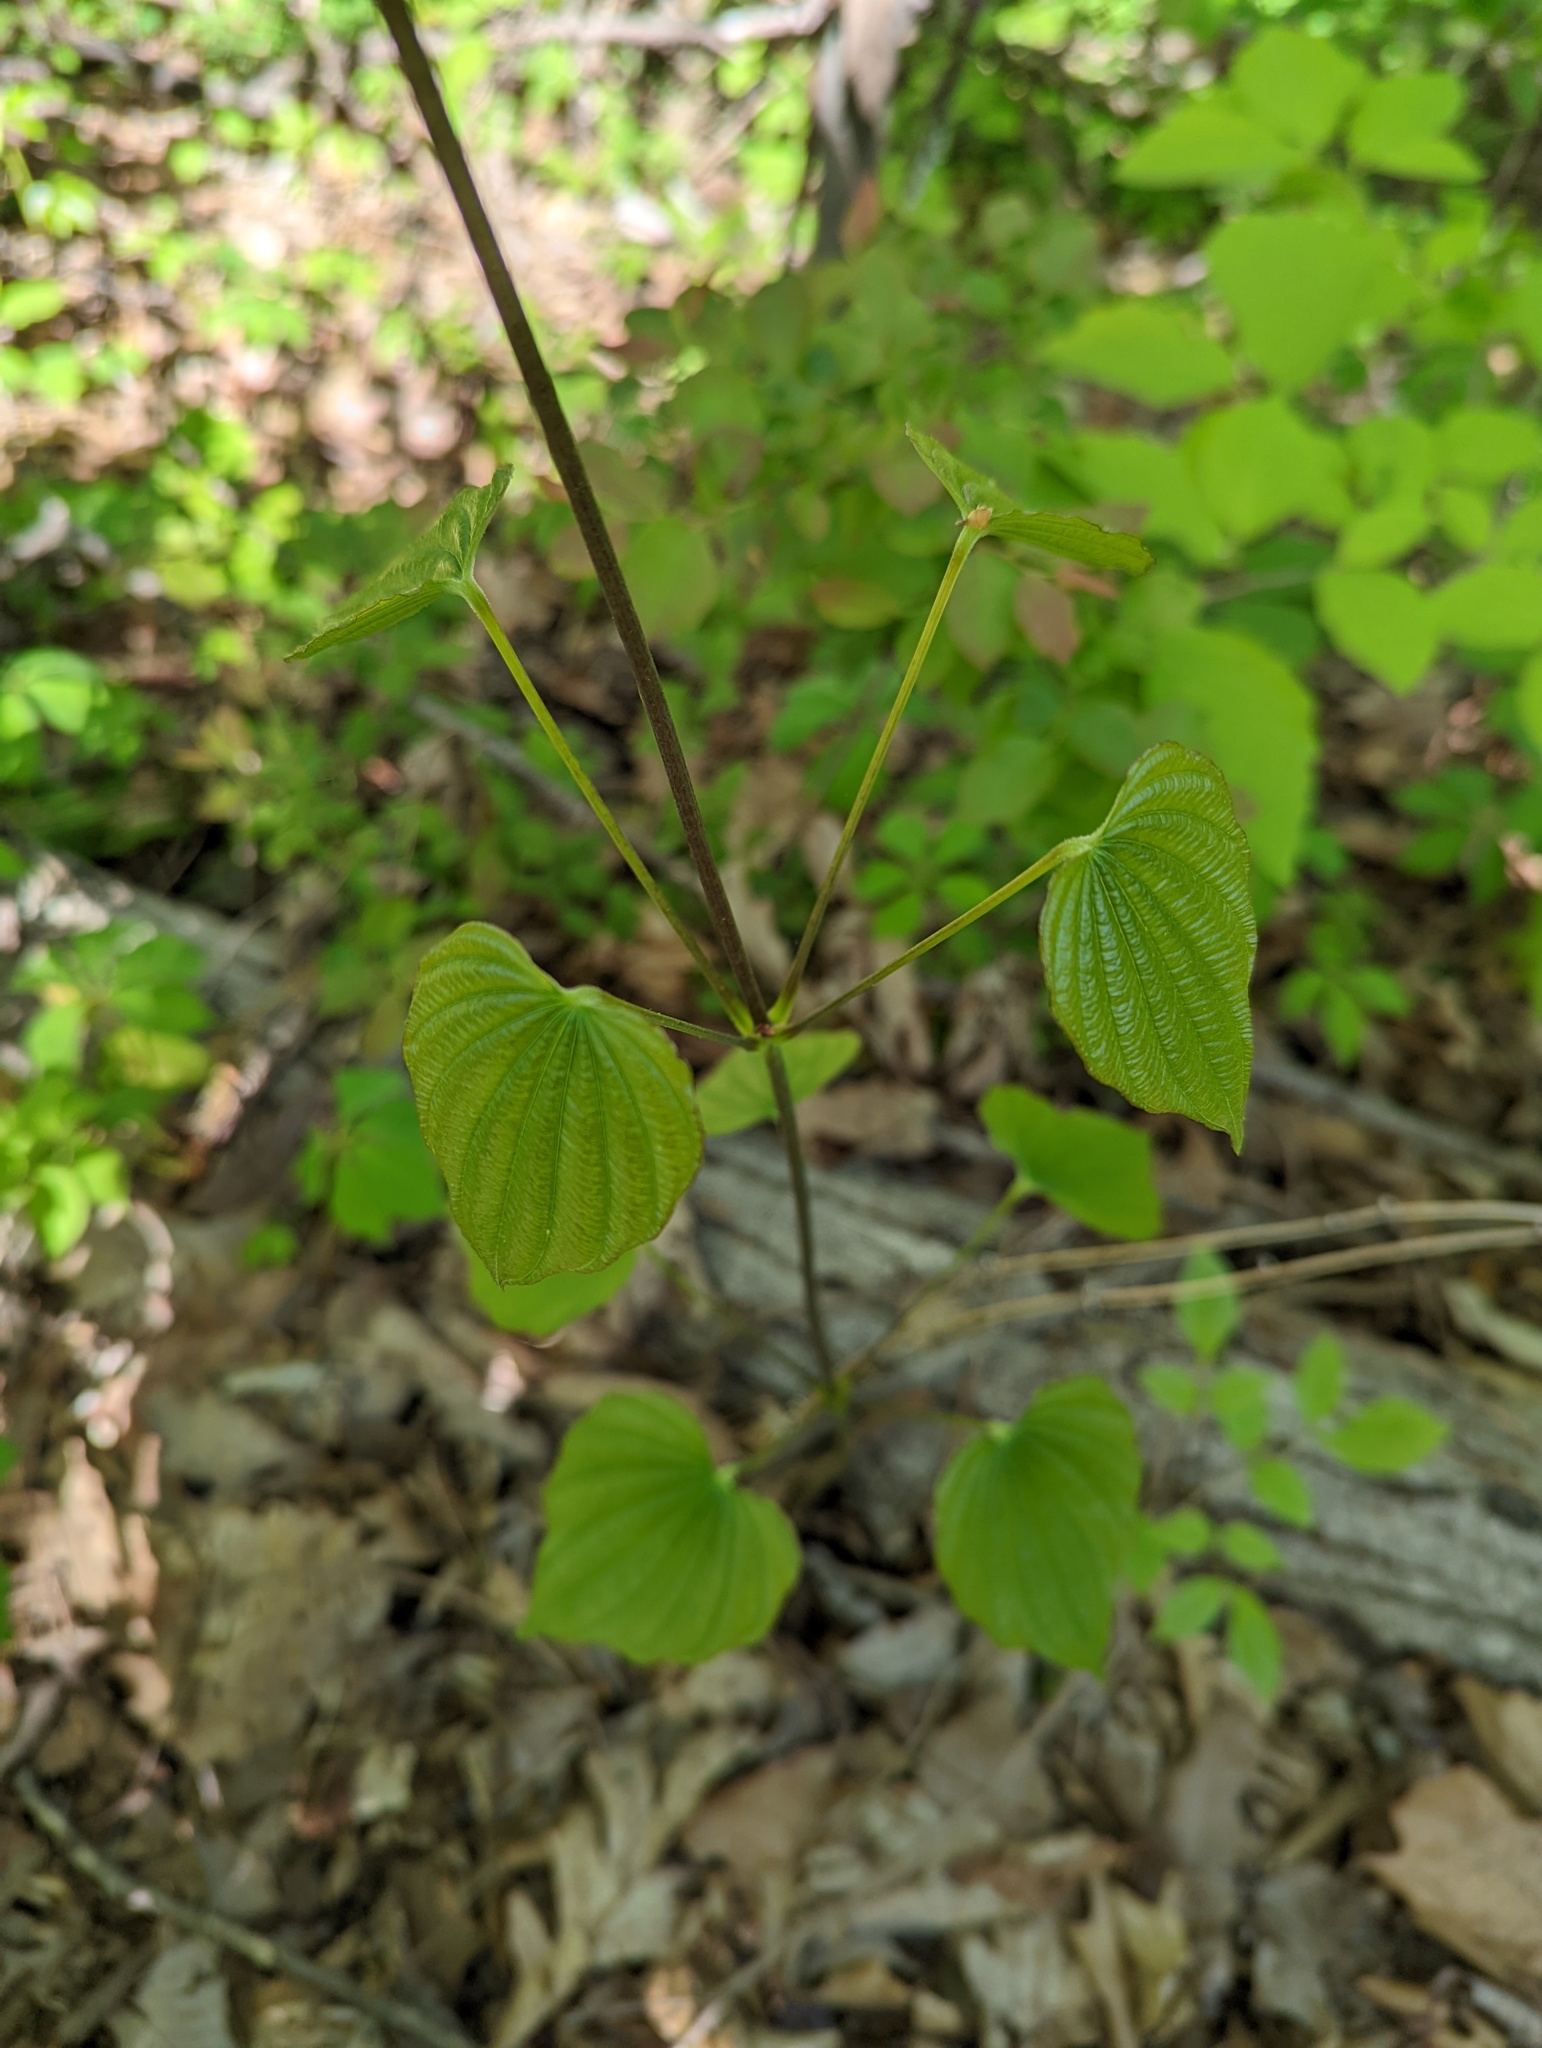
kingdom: Plantae
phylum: Tracheophyta
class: Liliopsida
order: Dioscoreales
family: Dioscoreaceae
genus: Dioscorea
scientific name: Dioscorea villosa
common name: Wild yam
